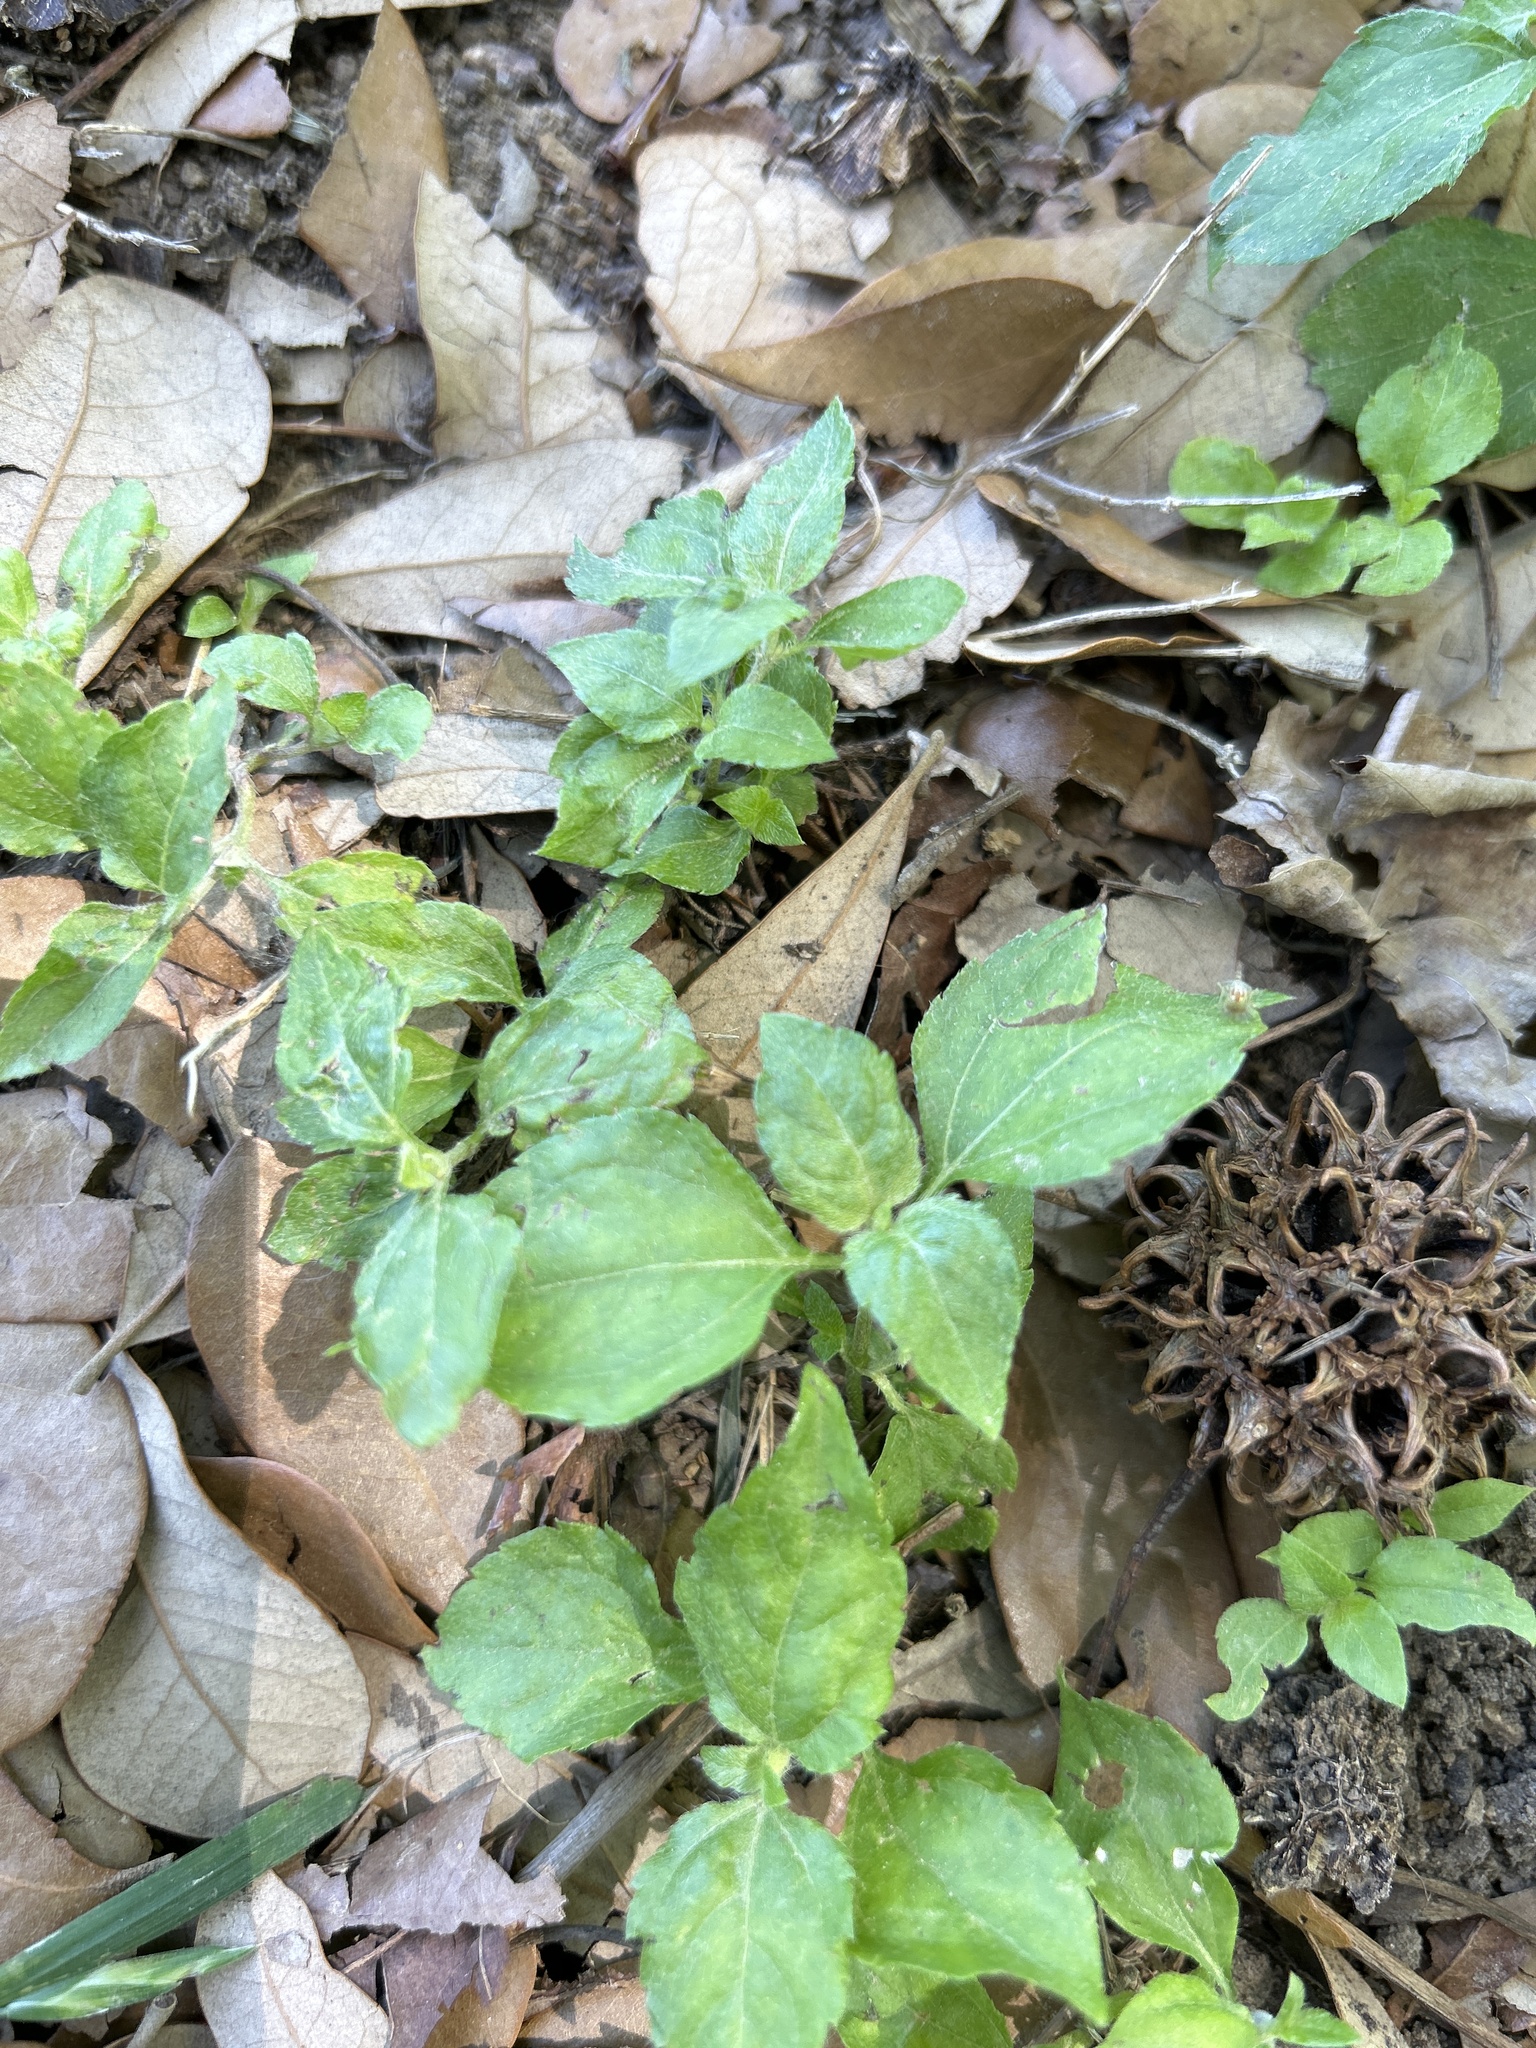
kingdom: Plantae
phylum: Tracheophyta
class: Magnoliopsida
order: Asterales
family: Asteraceae
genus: Calyptocarpus
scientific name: Calyptocarpus vialis
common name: Straggler daisy
